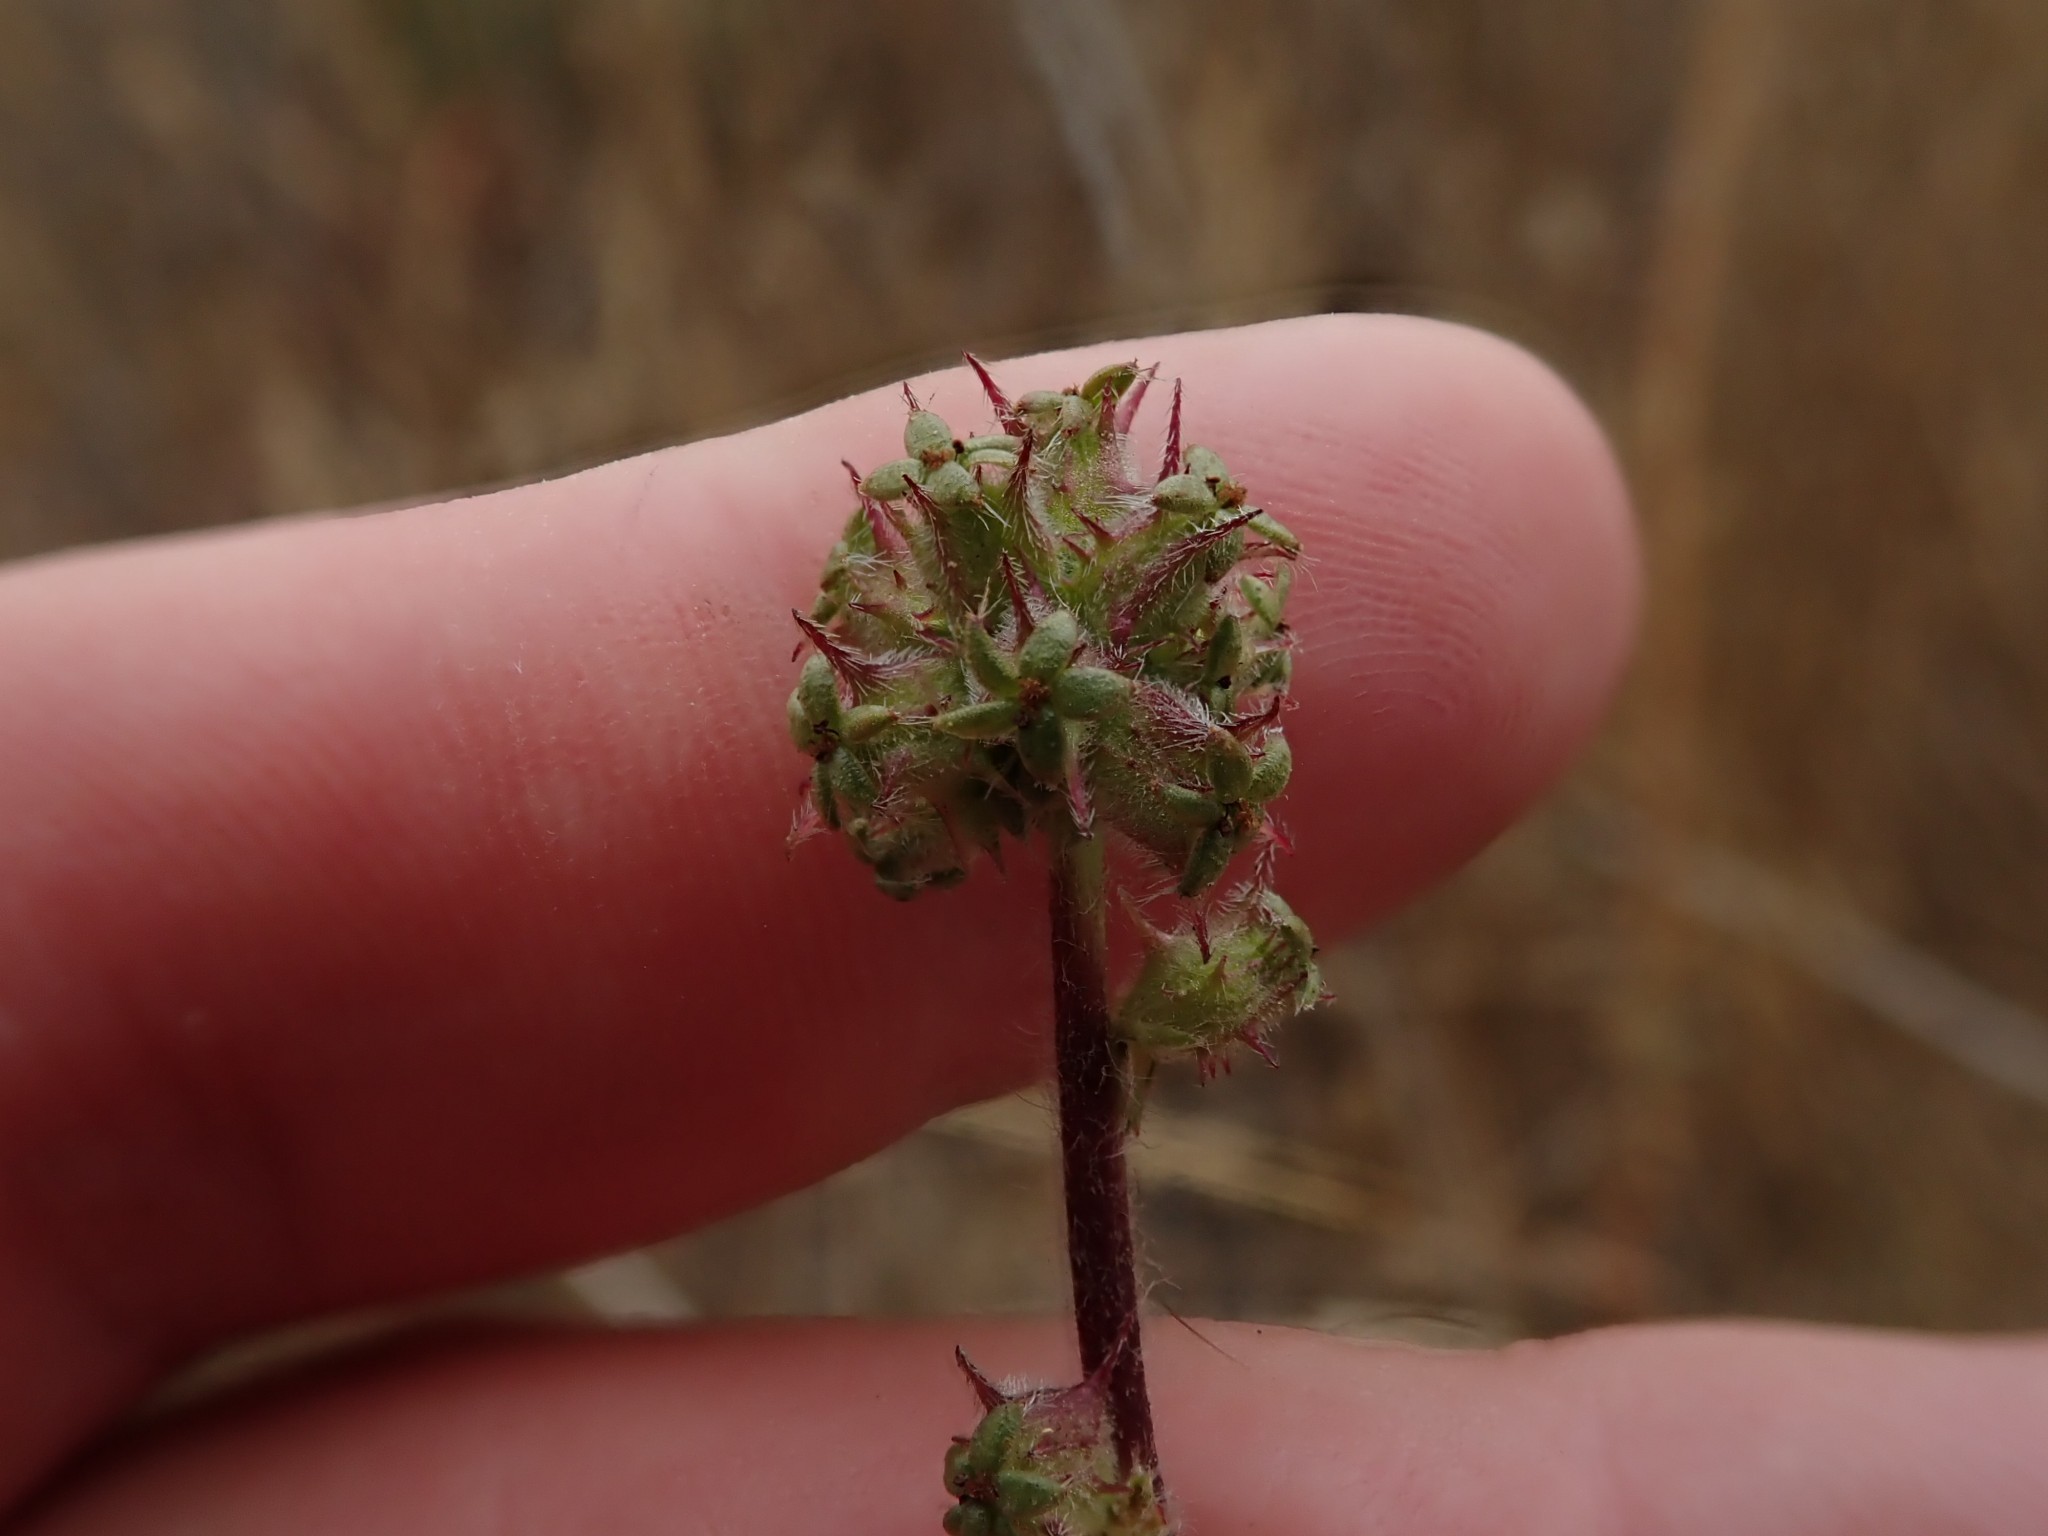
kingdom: Plantae
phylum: Tracheophyta
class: Magnoliopsida
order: Rosales
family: Rosaceae
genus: Acaena
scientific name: Acaena pinnatifida
